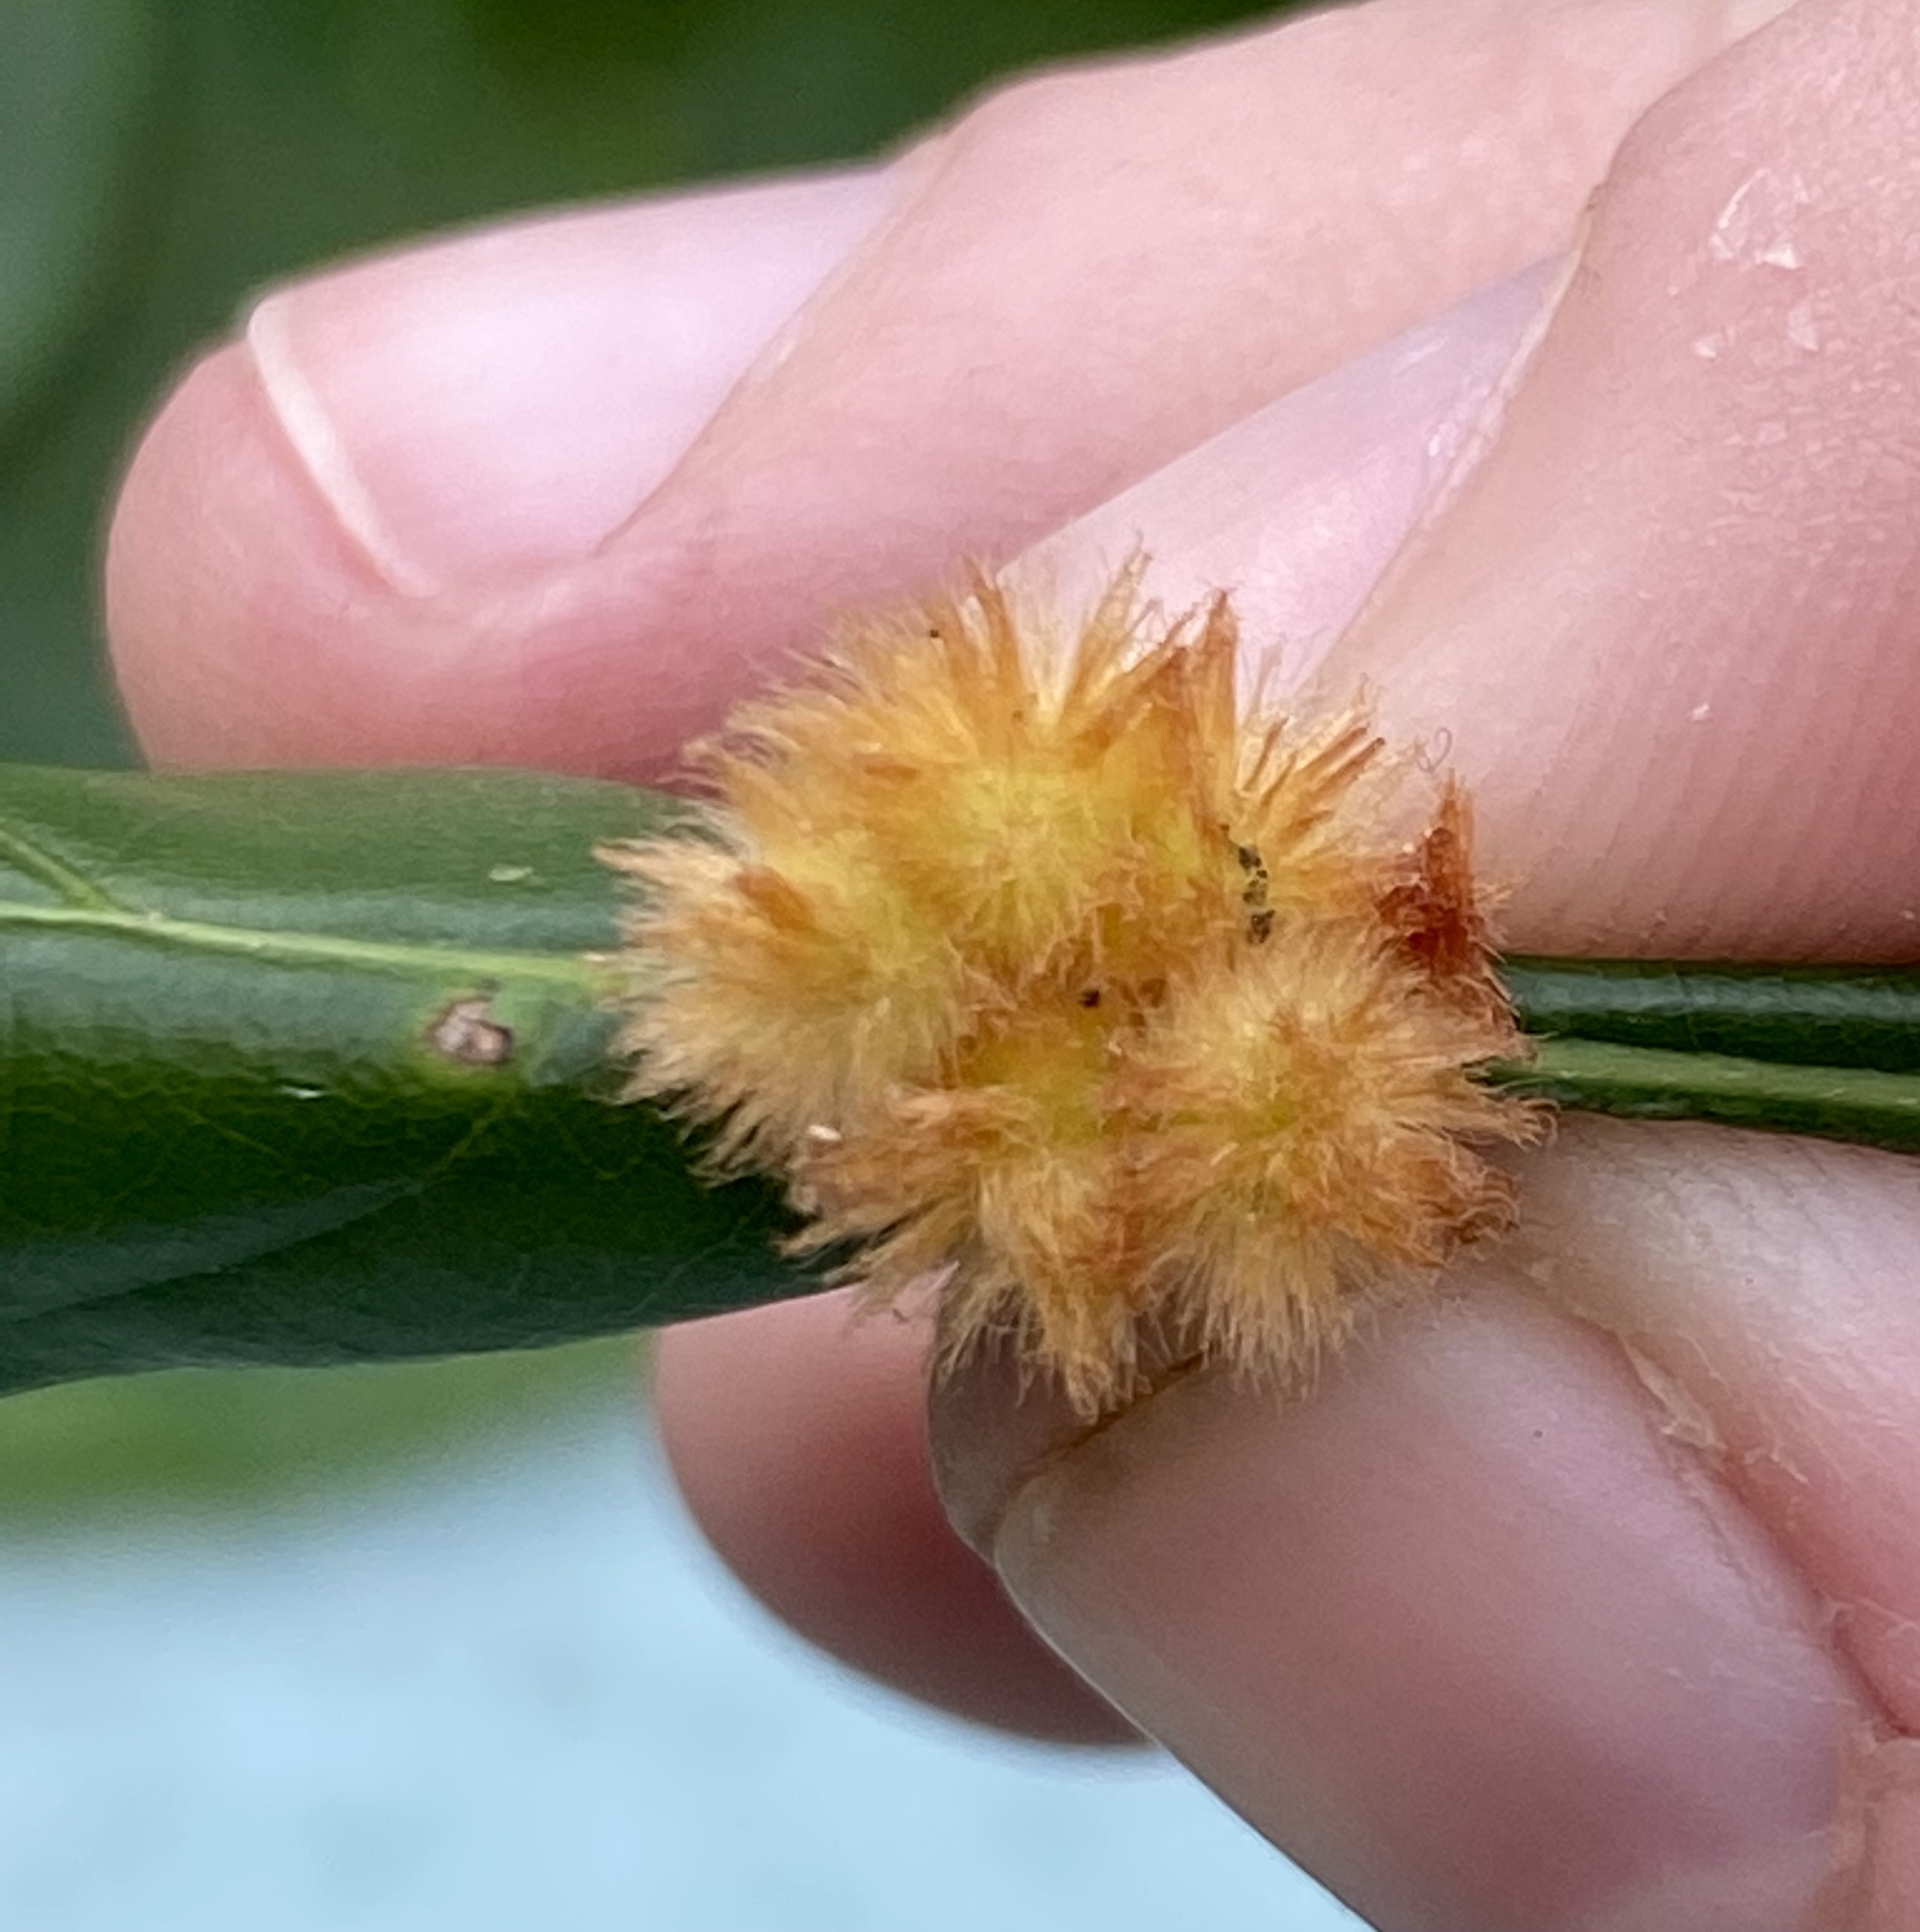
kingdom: Animalia
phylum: Arthropoda
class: Insecta
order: Hymenoptera
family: Cynipidae
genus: Callirhytis
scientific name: Callirhytis
